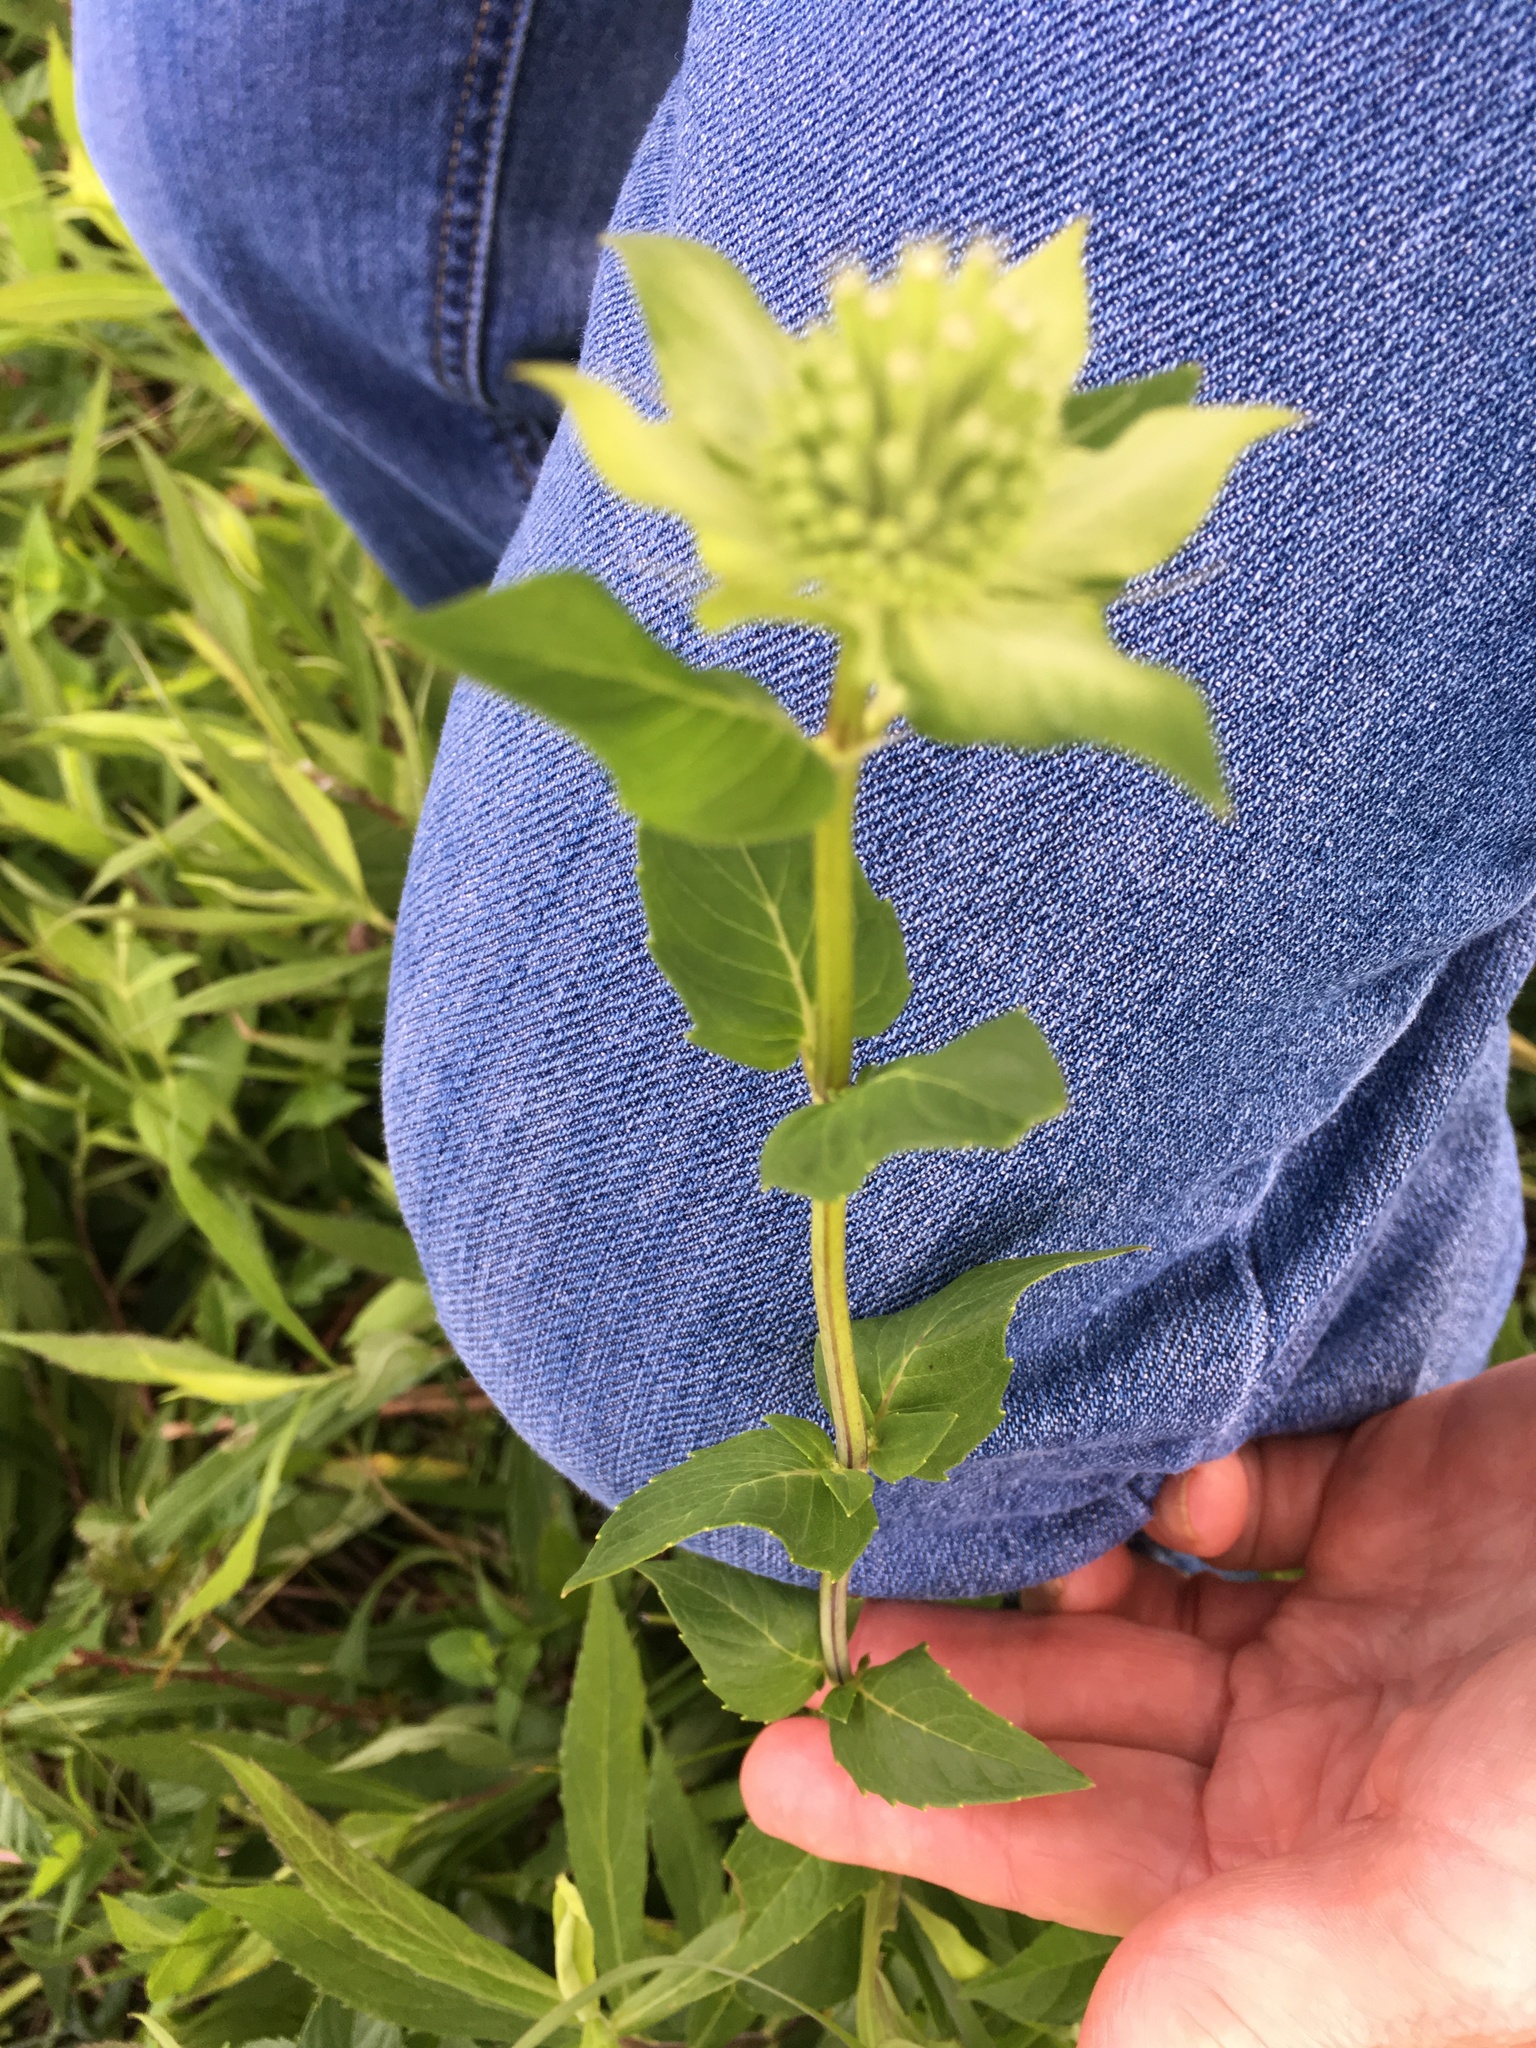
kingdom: Plantae
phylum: Tracheophyta
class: Magnoliopsida
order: Lamiales
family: Lamiaceae
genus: Monarda
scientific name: Monarda lindheimeri
